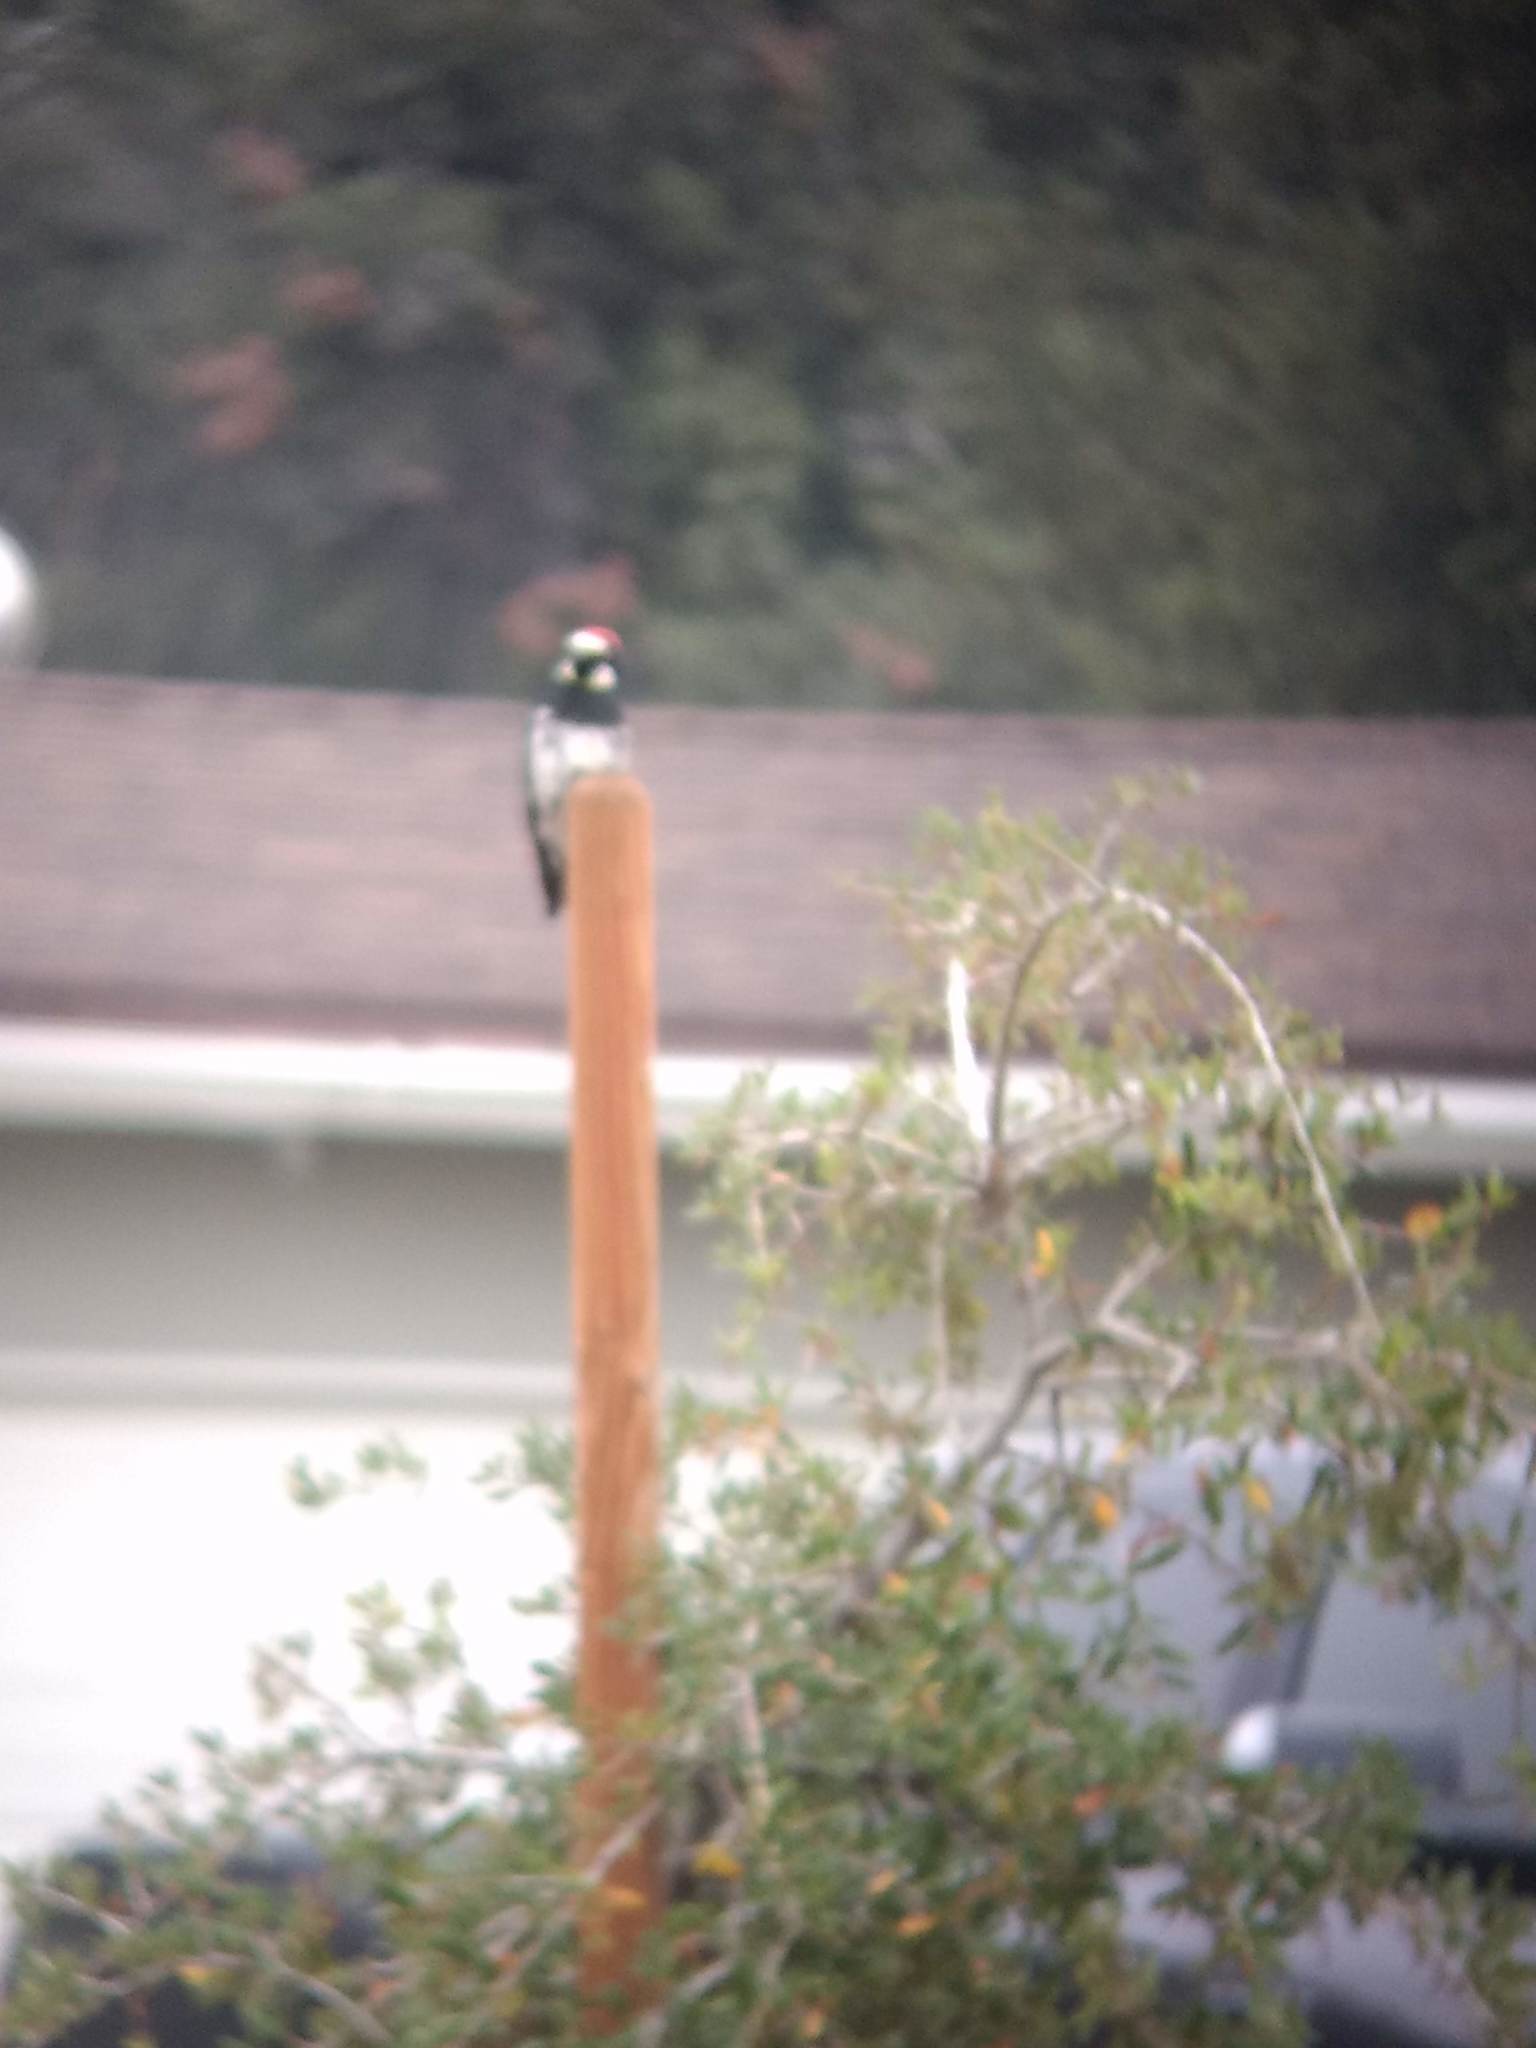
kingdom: Animalia
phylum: Chordata
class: Aves
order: Piciformes
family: Picidae
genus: Melanerpes
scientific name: Melanerpes formicivorus
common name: Acorn woodpecker
